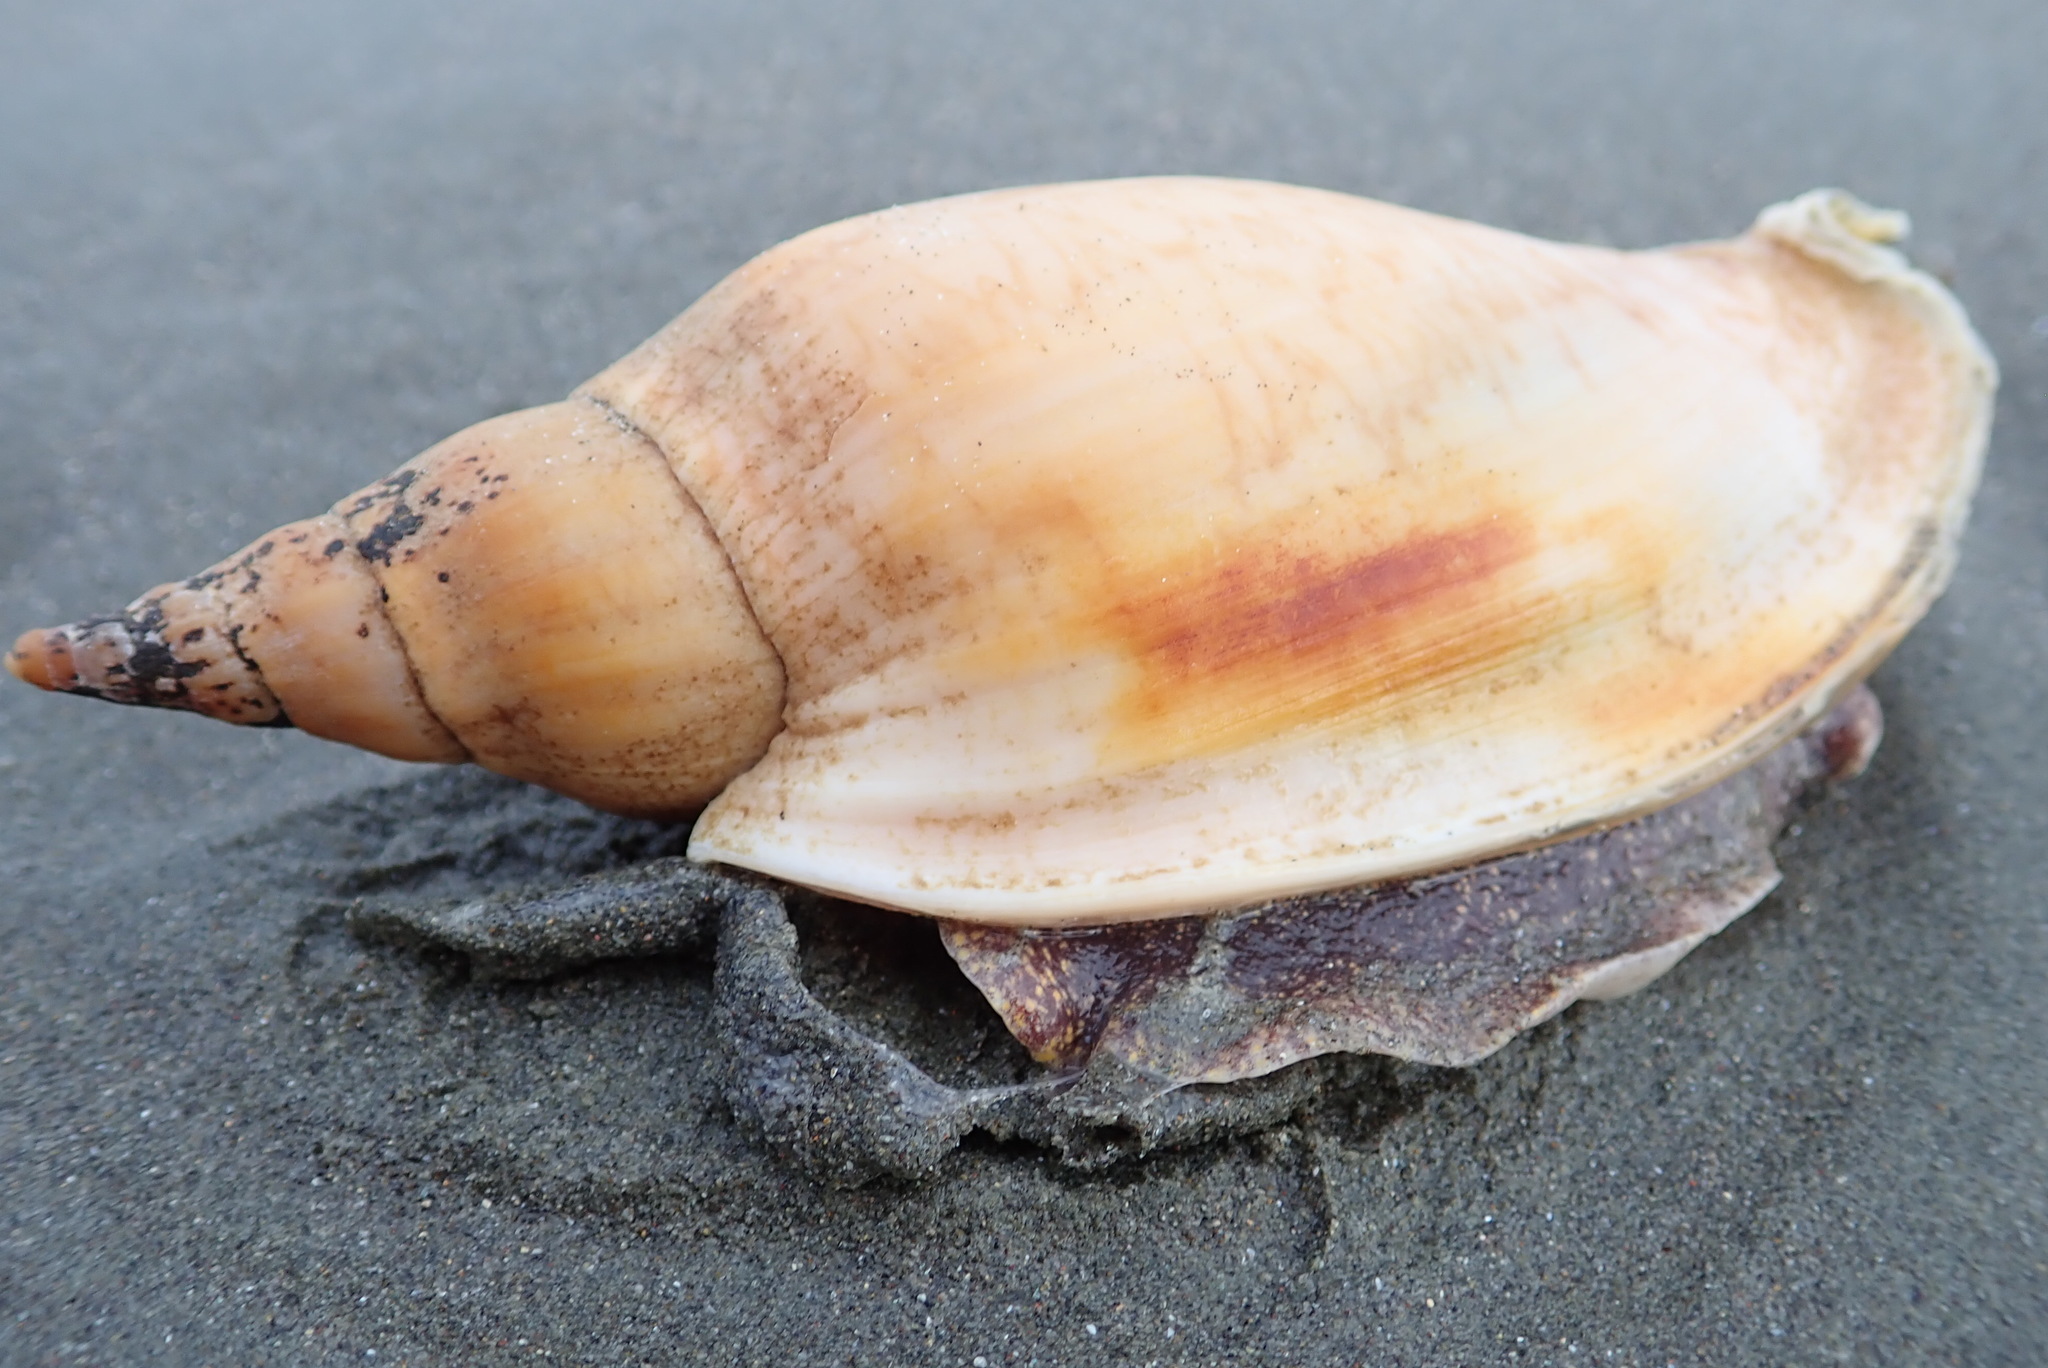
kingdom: Animalia
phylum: Mollusca
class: Gastropoda
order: Neogastropoda
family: Volutidae
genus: Alcithoe
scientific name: Alcithoe arabica
